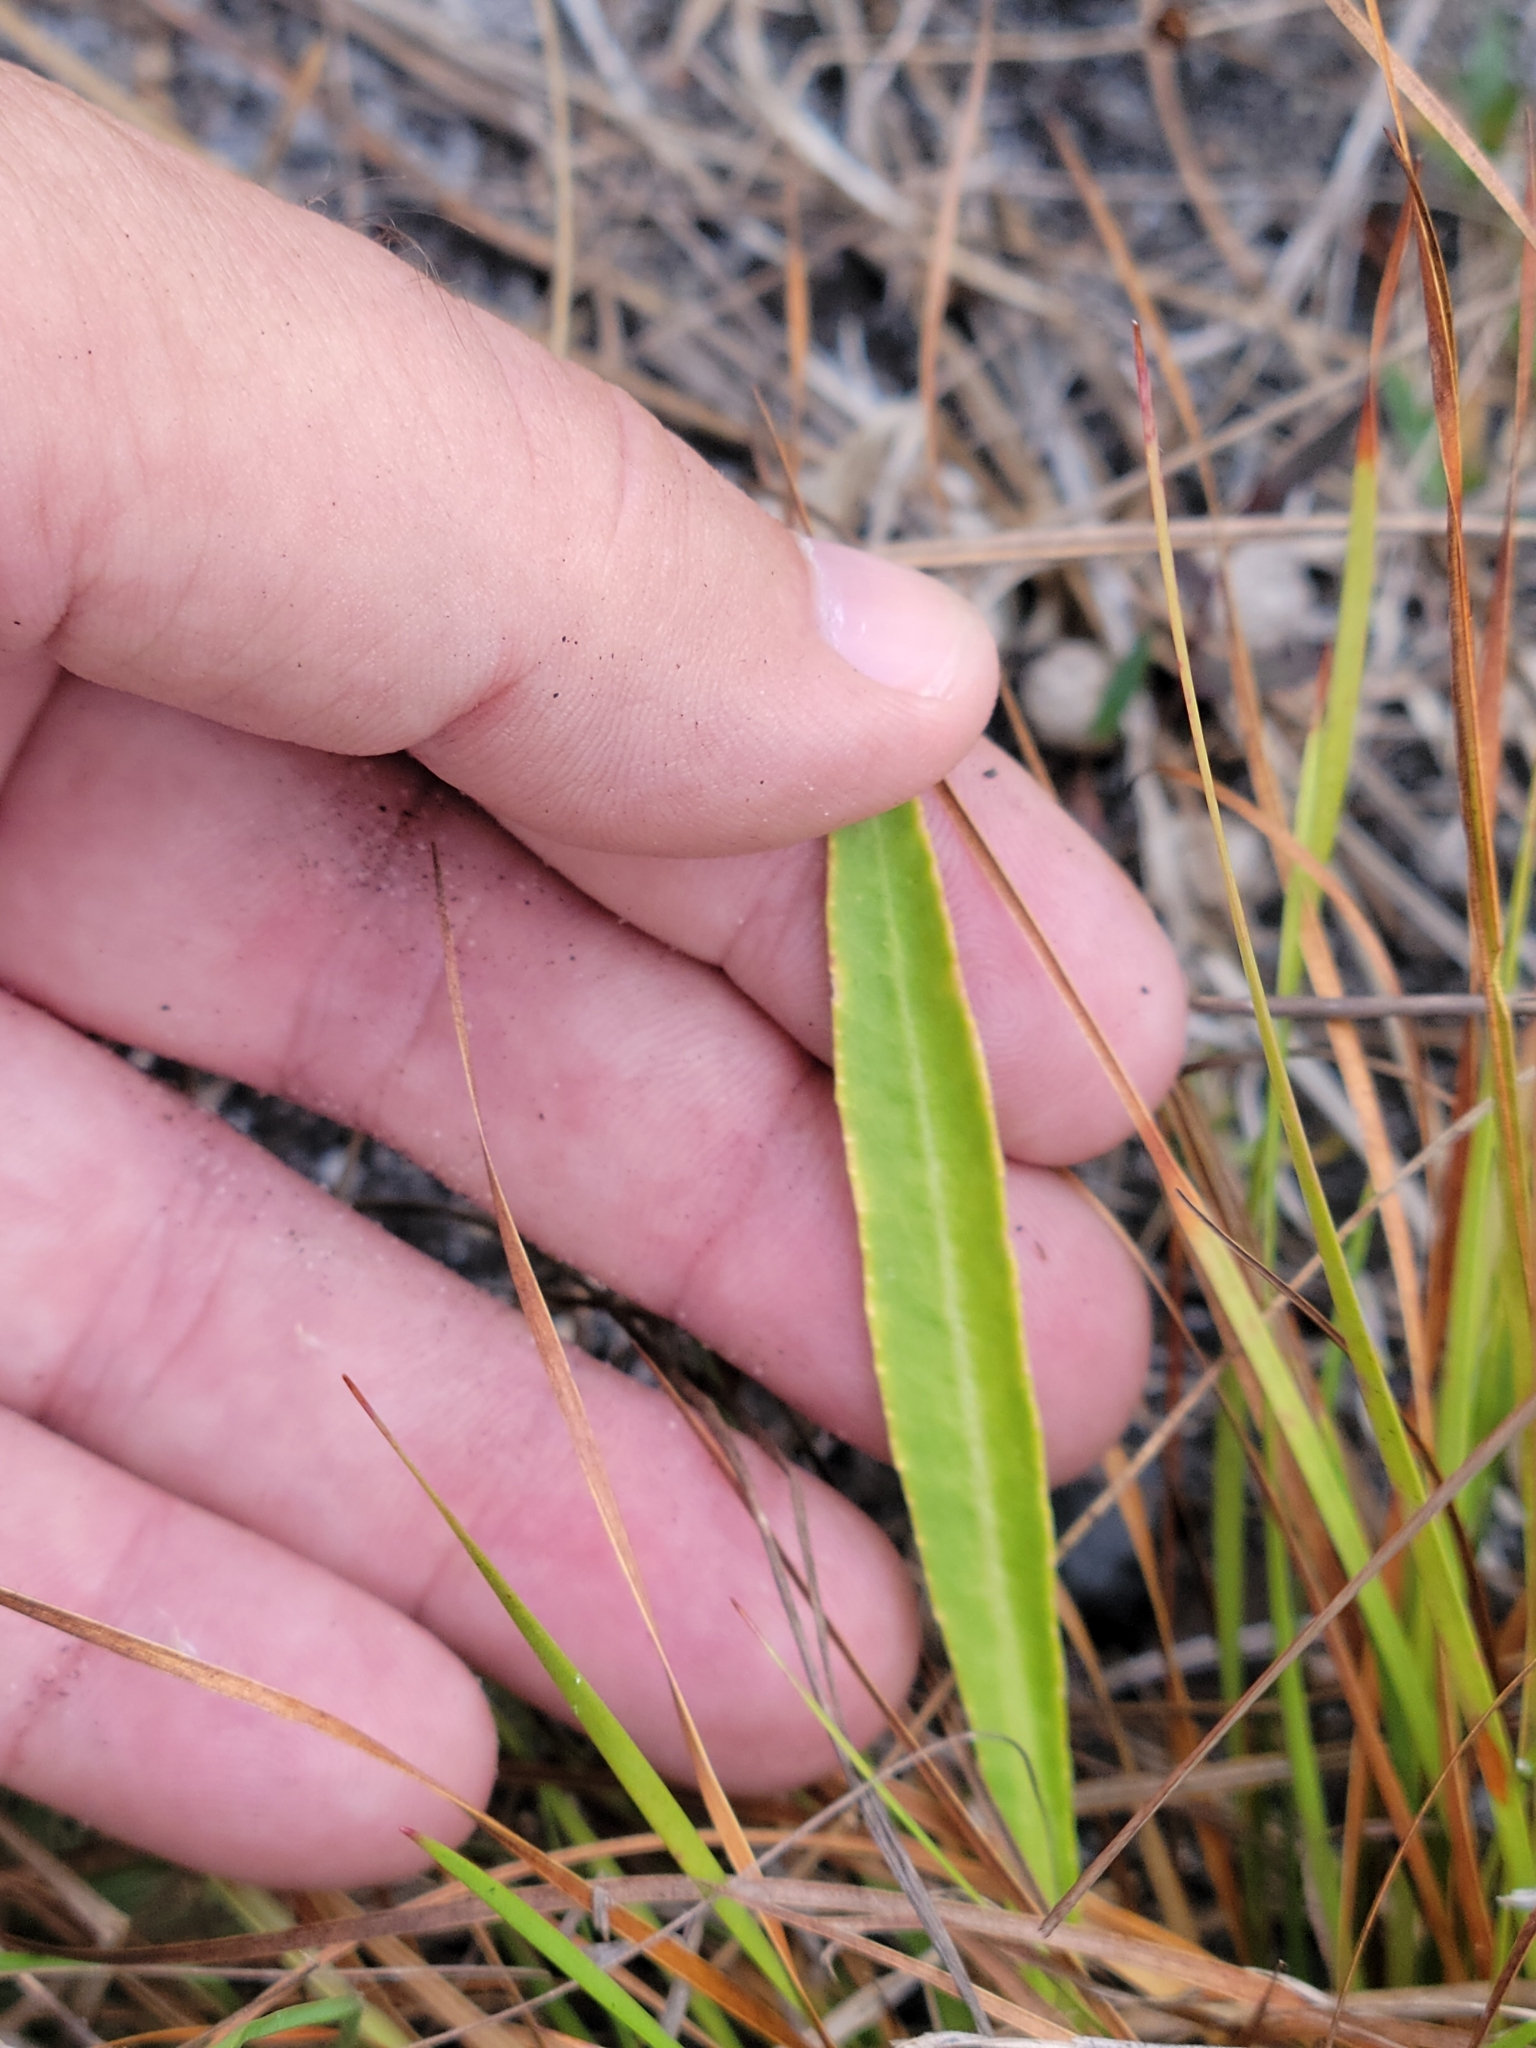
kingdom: Plantae
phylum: Tracheophyta
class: Magnoliopsida
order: Asterales
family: Campanulaceae
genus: Lobelia
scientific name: Lobelia paludosa
